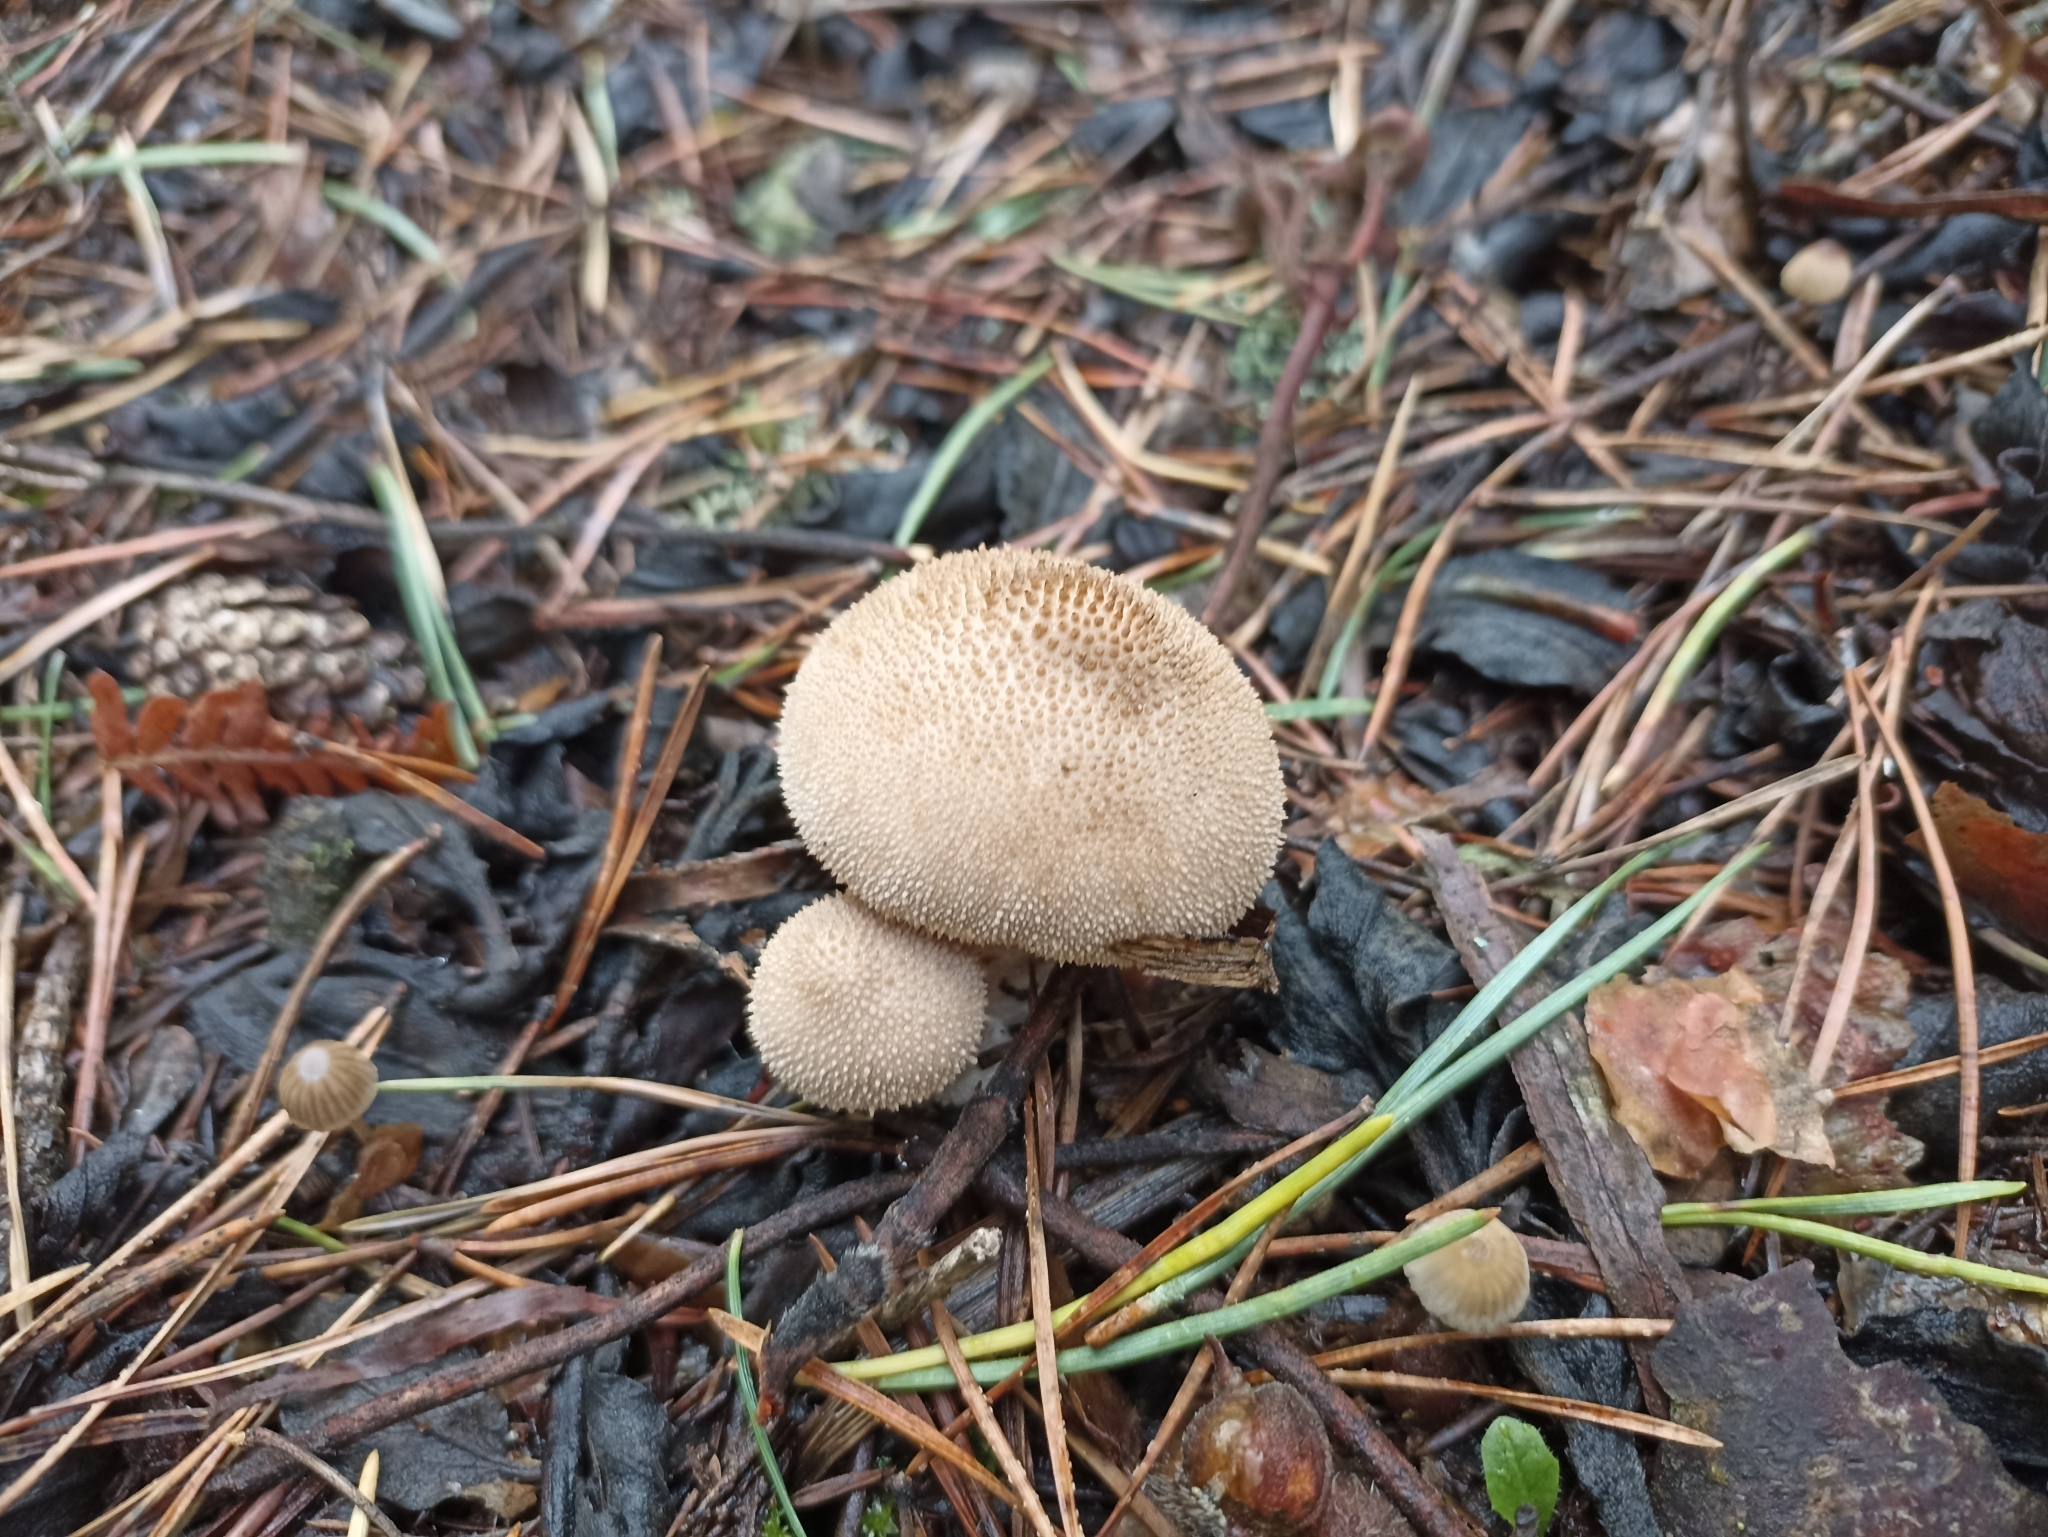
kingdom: Fungi
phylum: Basidiomycota
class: Agaricomycetes
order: Agaricales
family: Lycoperdaceae
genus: Lycoperdon
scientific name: Lycoperdon perlatum
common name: Common puffball
